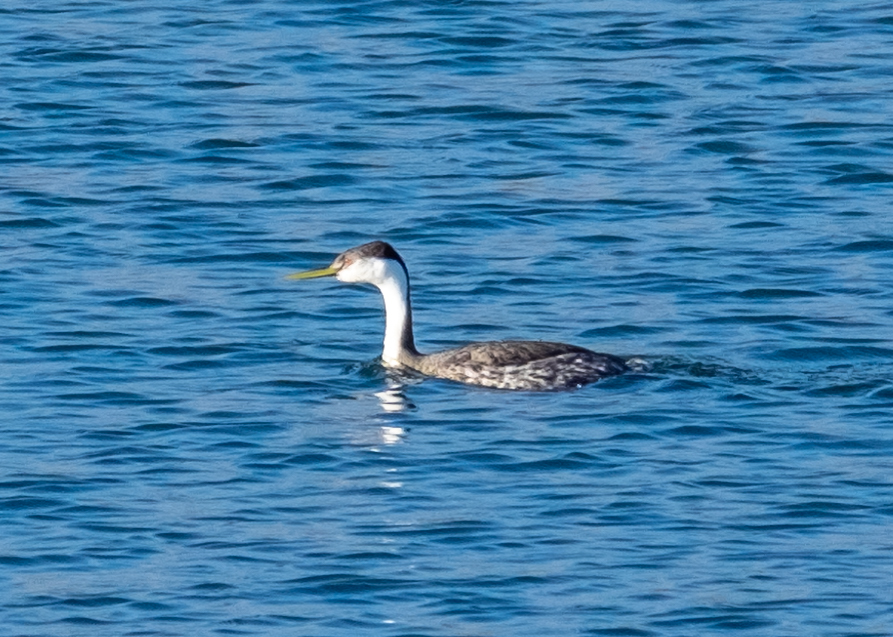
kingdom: Animalia
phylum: Chordata
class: Aves
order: Podicipediformes
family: Podicipedidae
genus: Aechmophorus
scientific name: Aechmophorus occidentalis
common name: Western grebe
